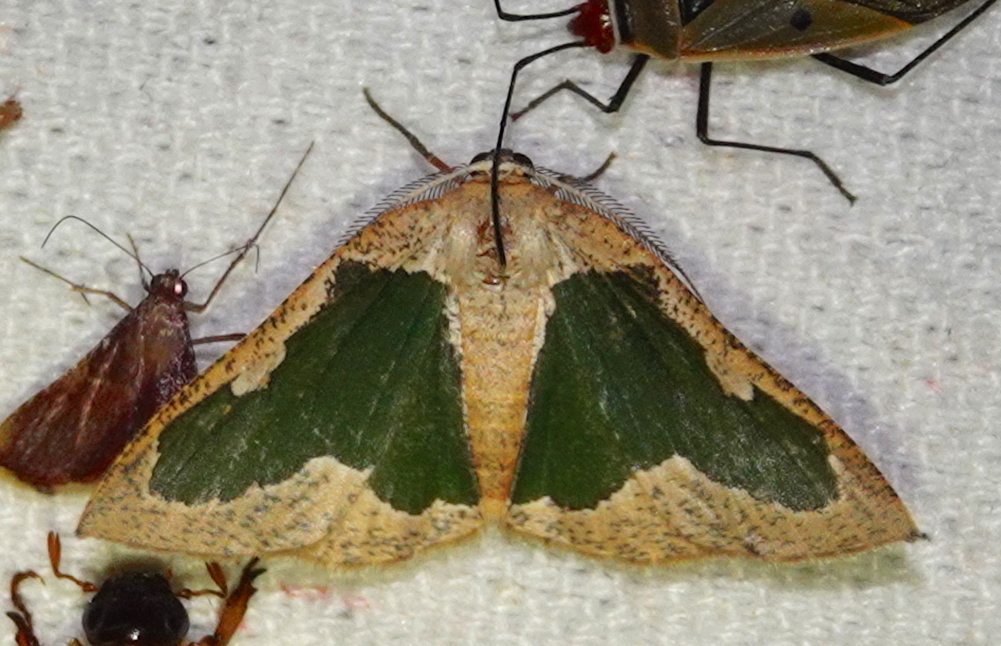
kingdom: Animalia
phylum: Arthropoda
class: Insecta
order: Lepidoptera
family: Geometridae
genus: Celenna
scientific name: Celenna festivaria
